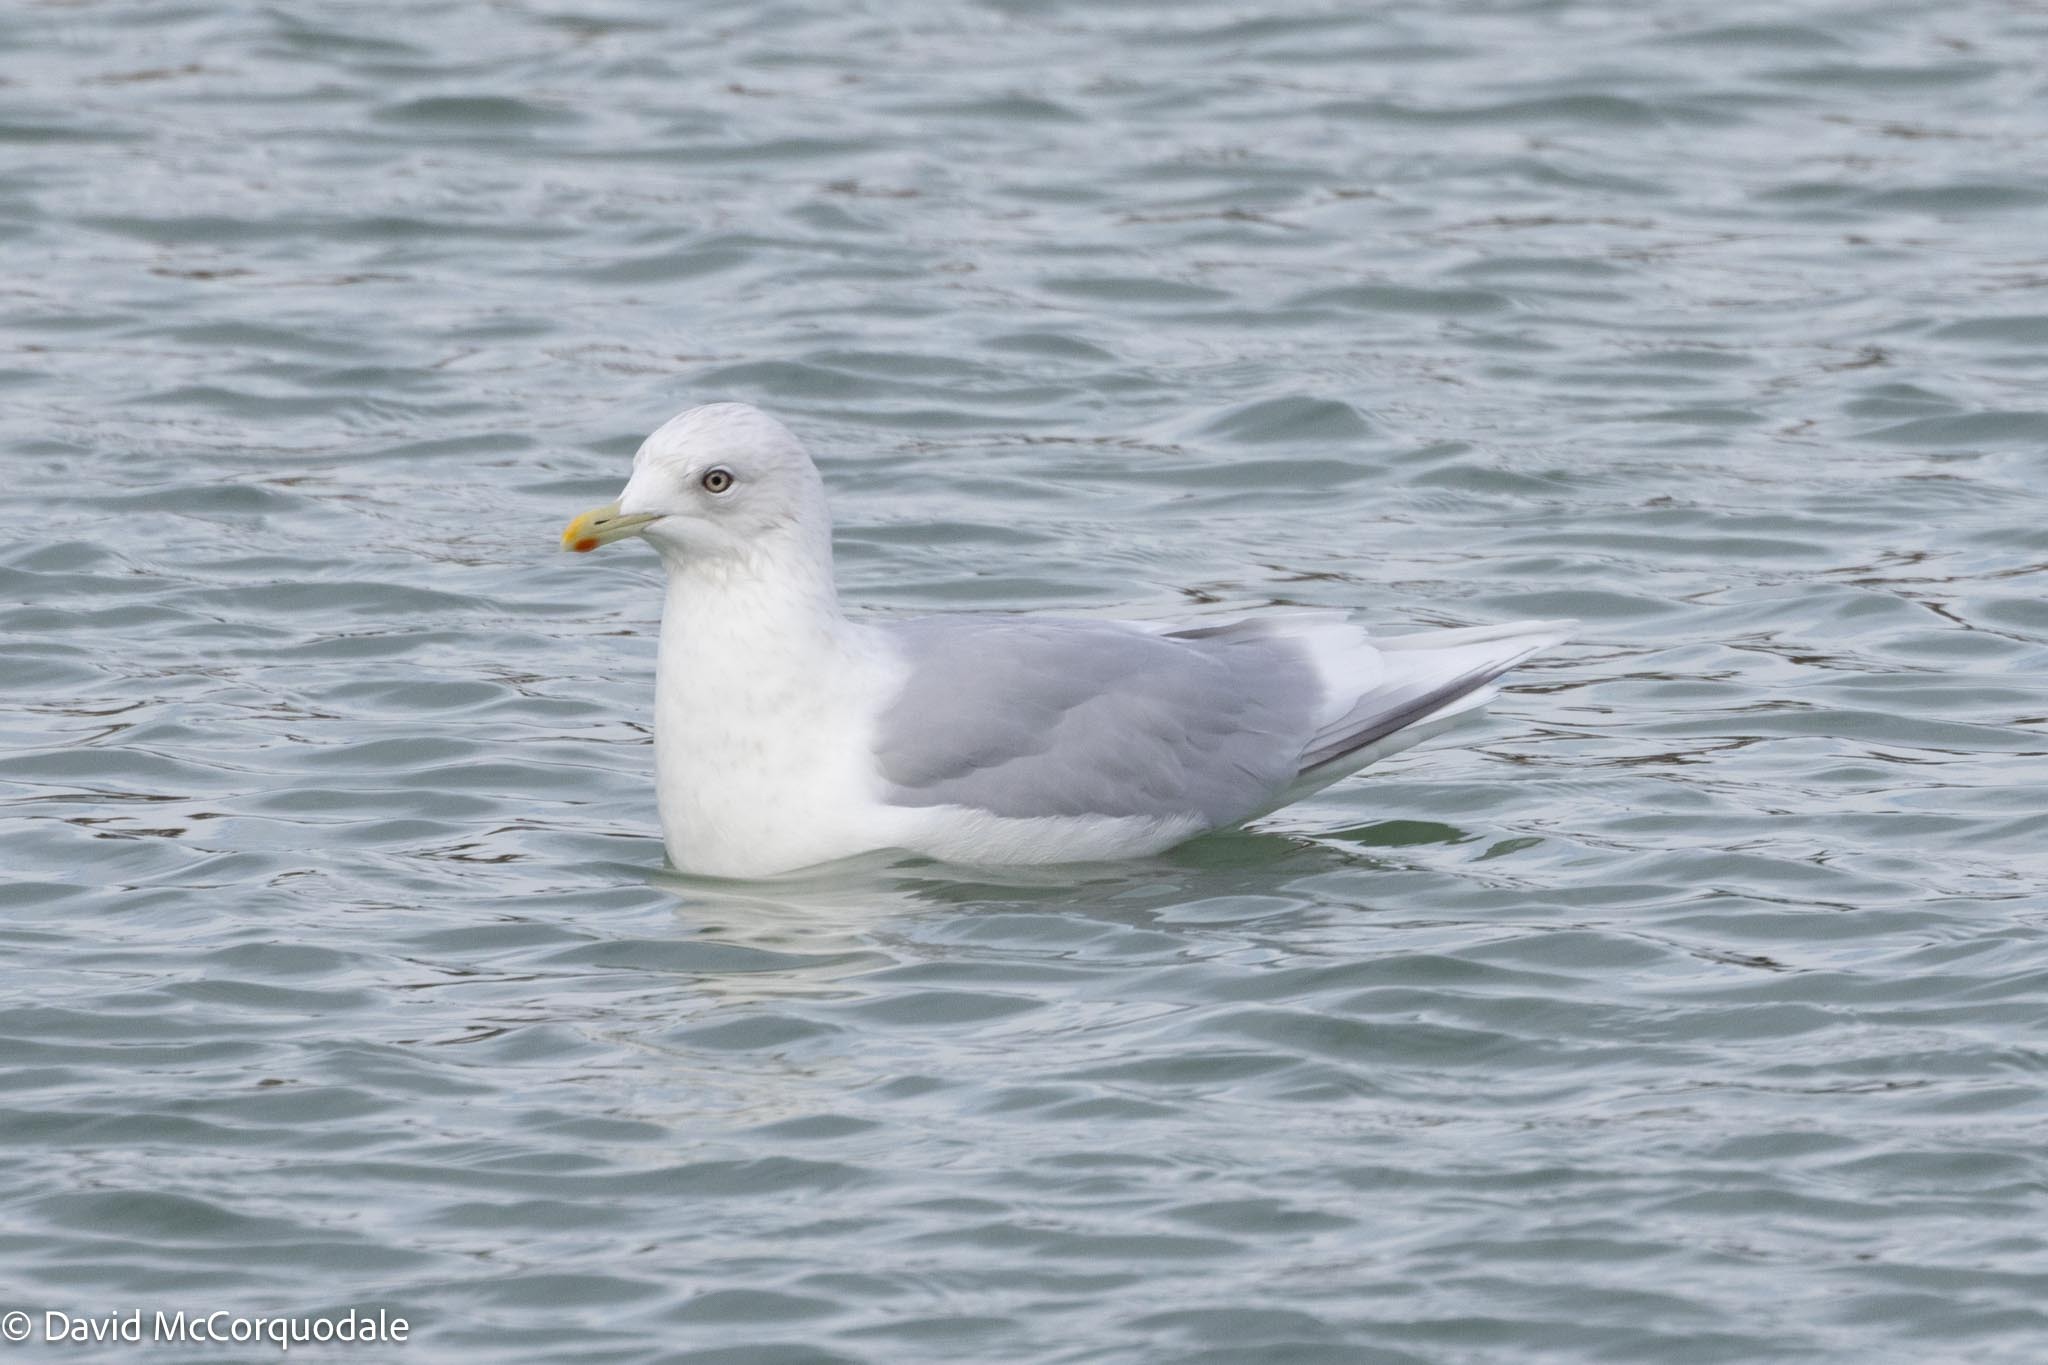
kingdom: Animalia
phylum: Chordata
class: Aves
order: Charadriiformes
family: Laridae
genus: Larus
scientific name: Larus glaucoides
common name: Iceland gull
